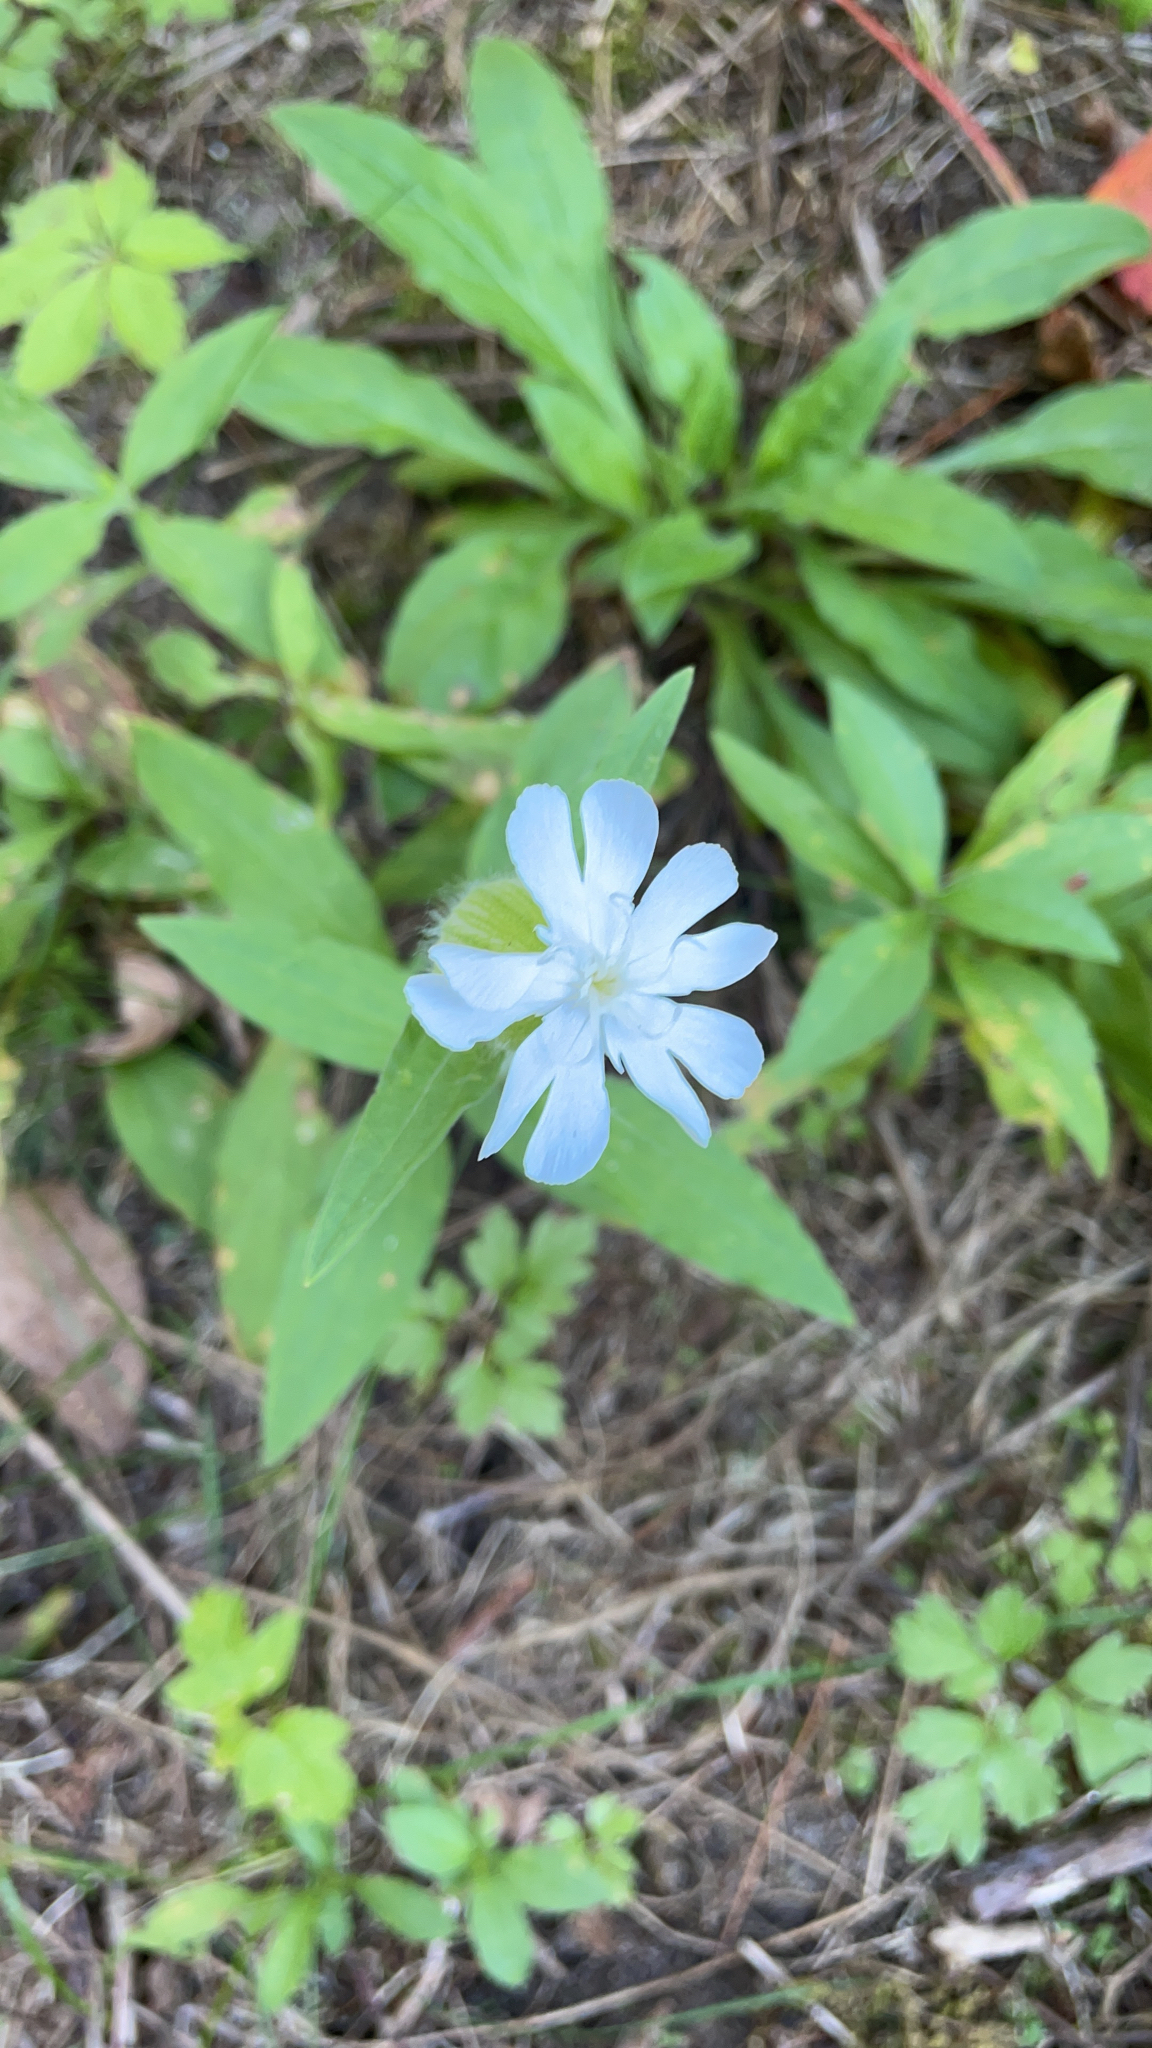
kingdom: Plantae
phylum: Tracheophyta
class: Magnoliopsida
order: Caryophyllales
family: Caryophyllaceae
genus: Silene
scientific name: Silene latifolia
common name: White campion
